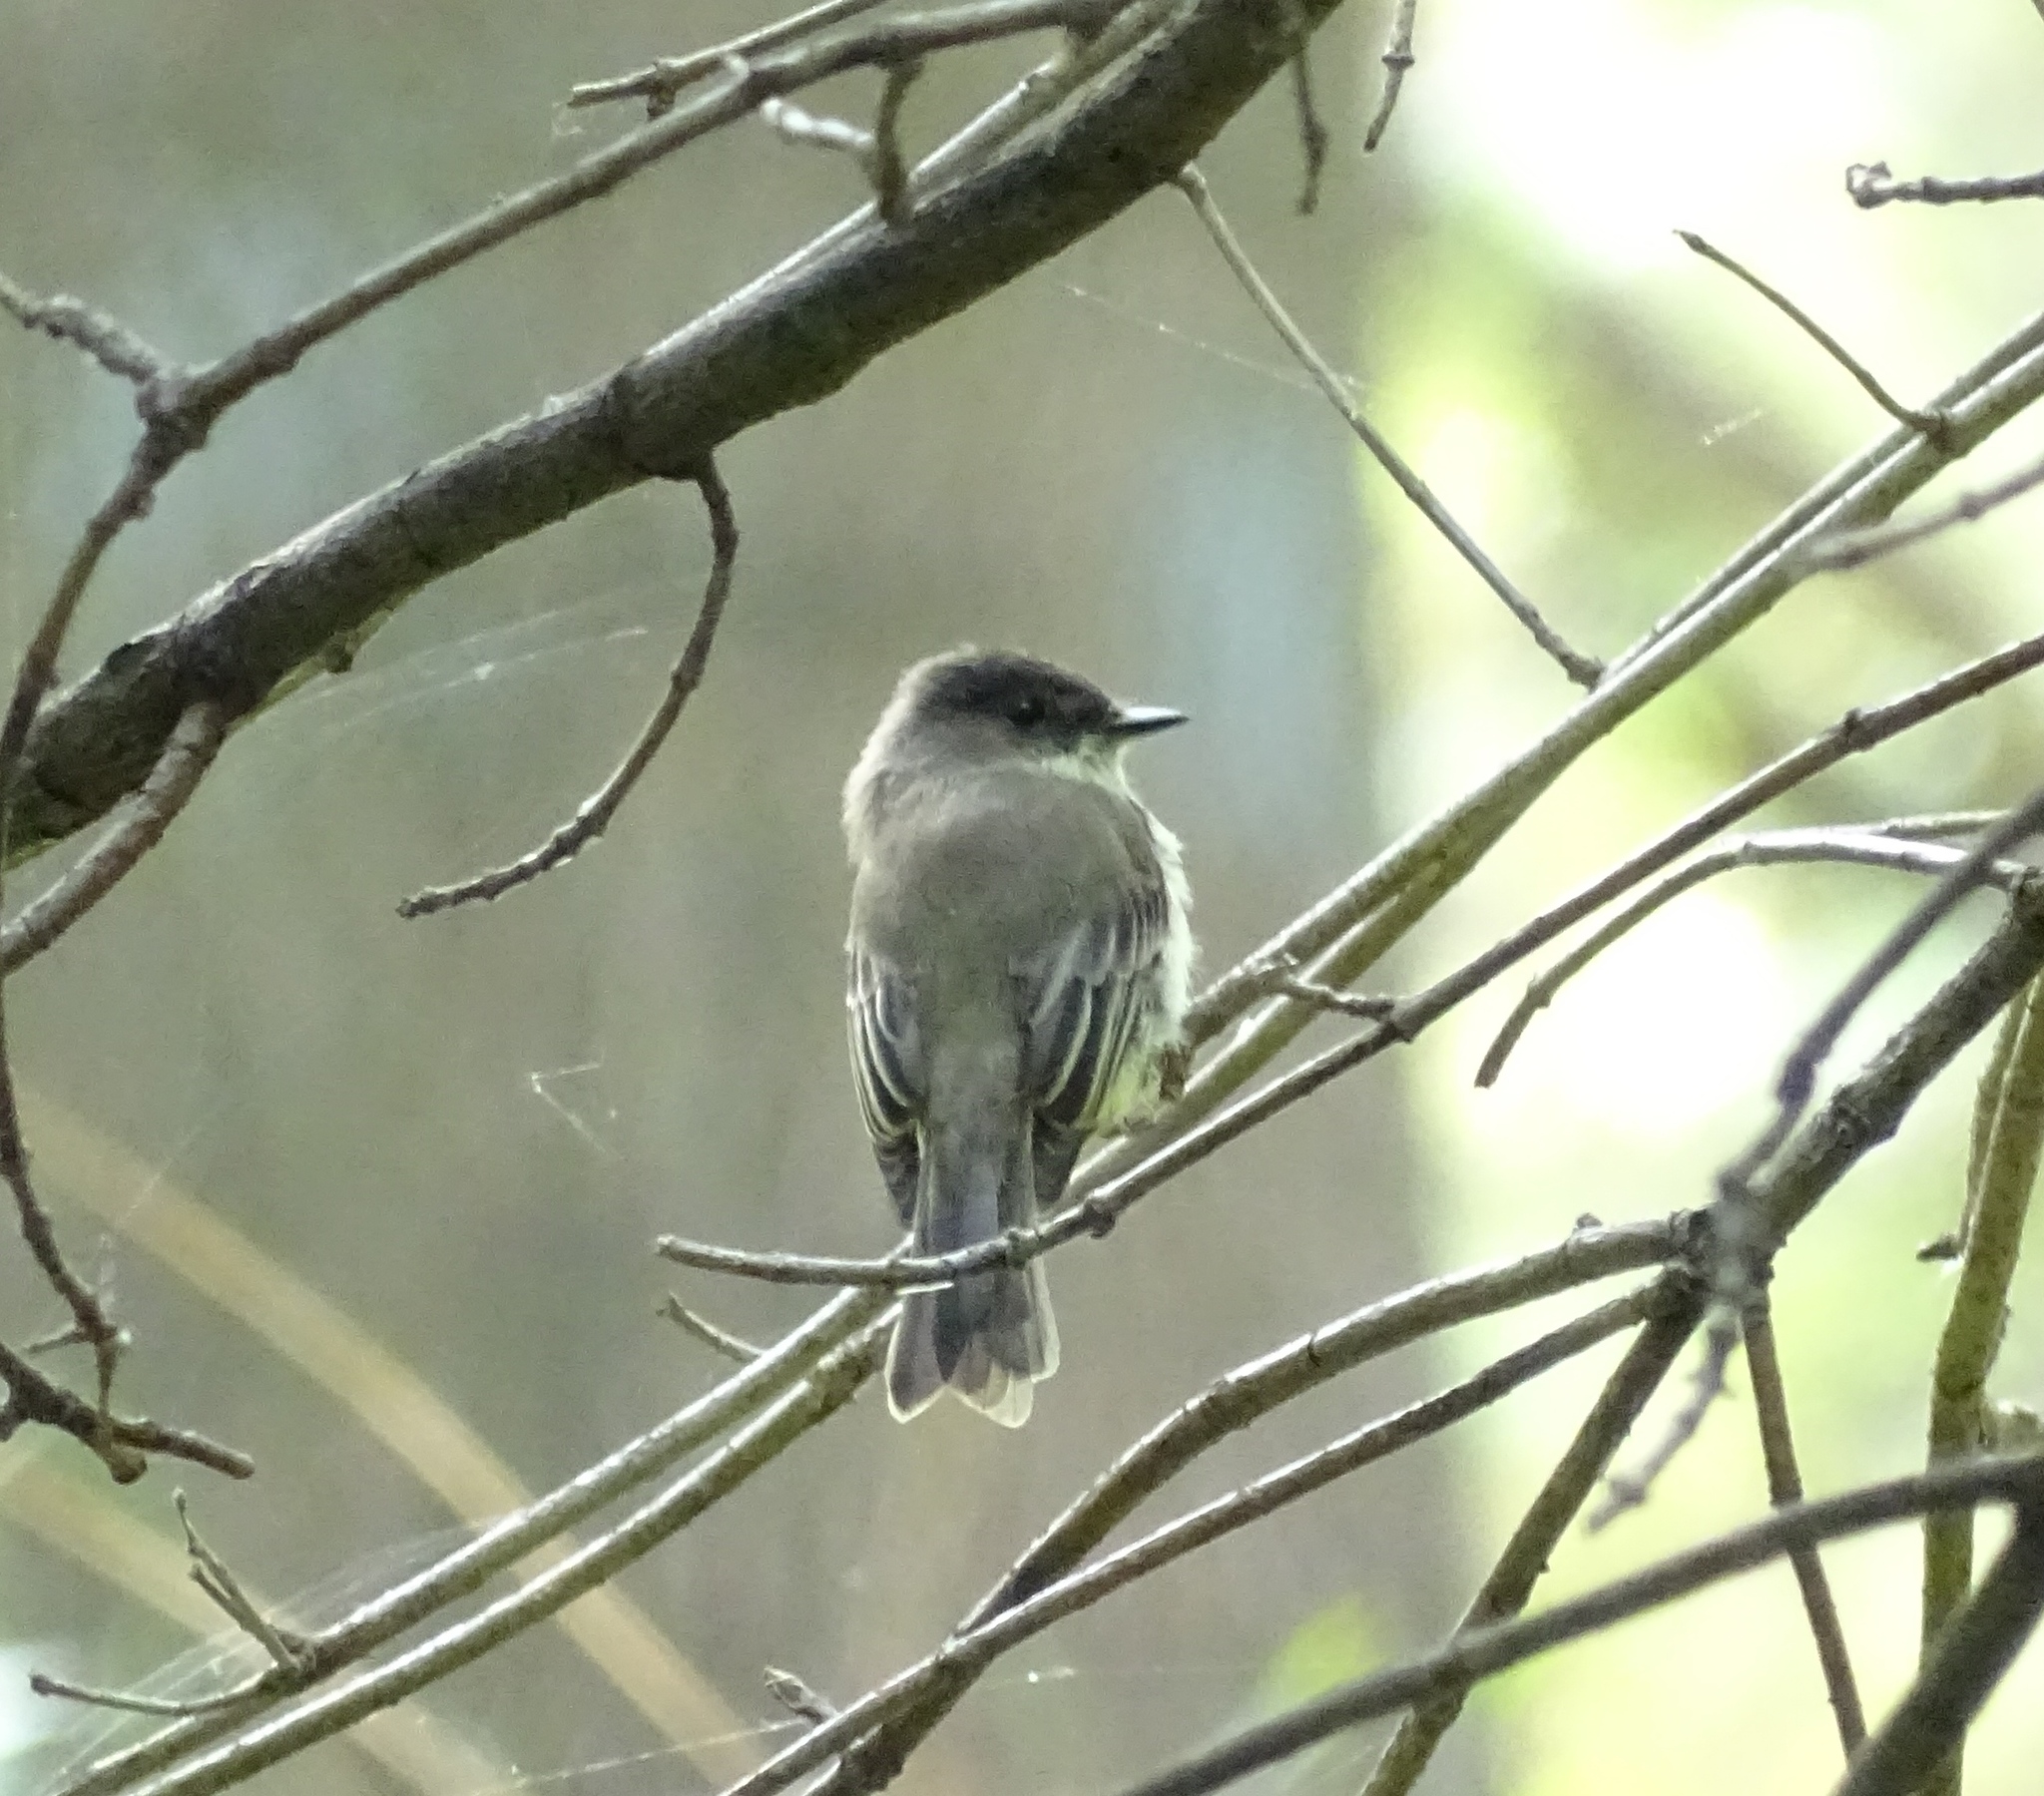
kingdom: Animalia
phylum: Chordata
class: Aves
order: Passeriformes
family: Tyrannidae
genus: Sayornis
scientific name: Sayornis phoebe
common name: Eastern phoebe
